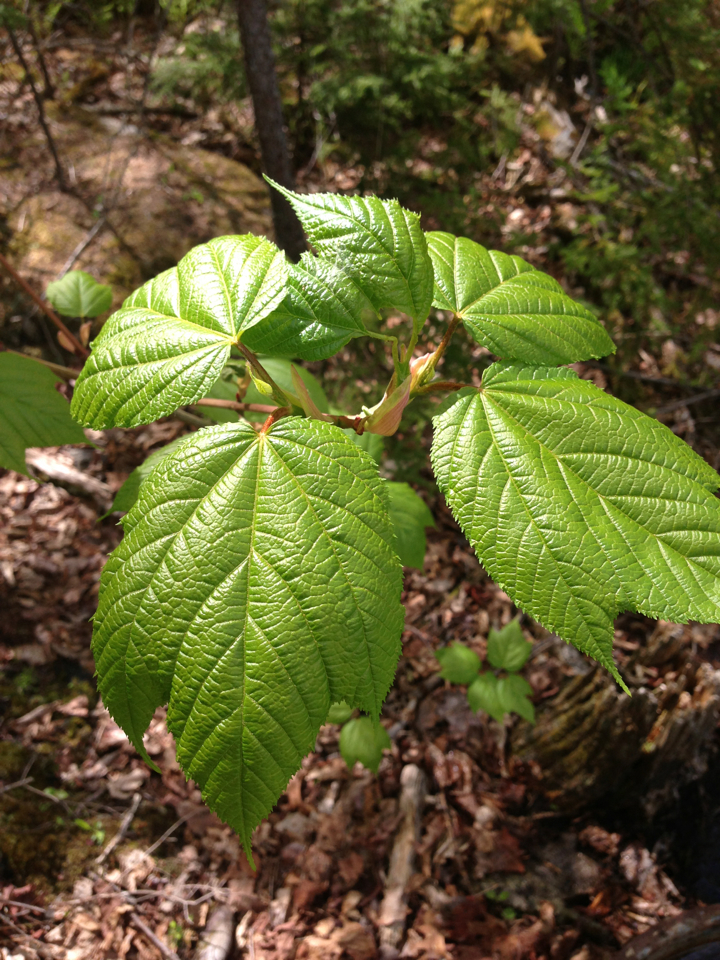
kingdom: Plantae
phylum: Tracheophyta
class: Magnoliopsida
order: Sapindales
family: Sapindaceae
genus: Acer
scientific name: Acer pensylvanicum
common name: Moosewood
